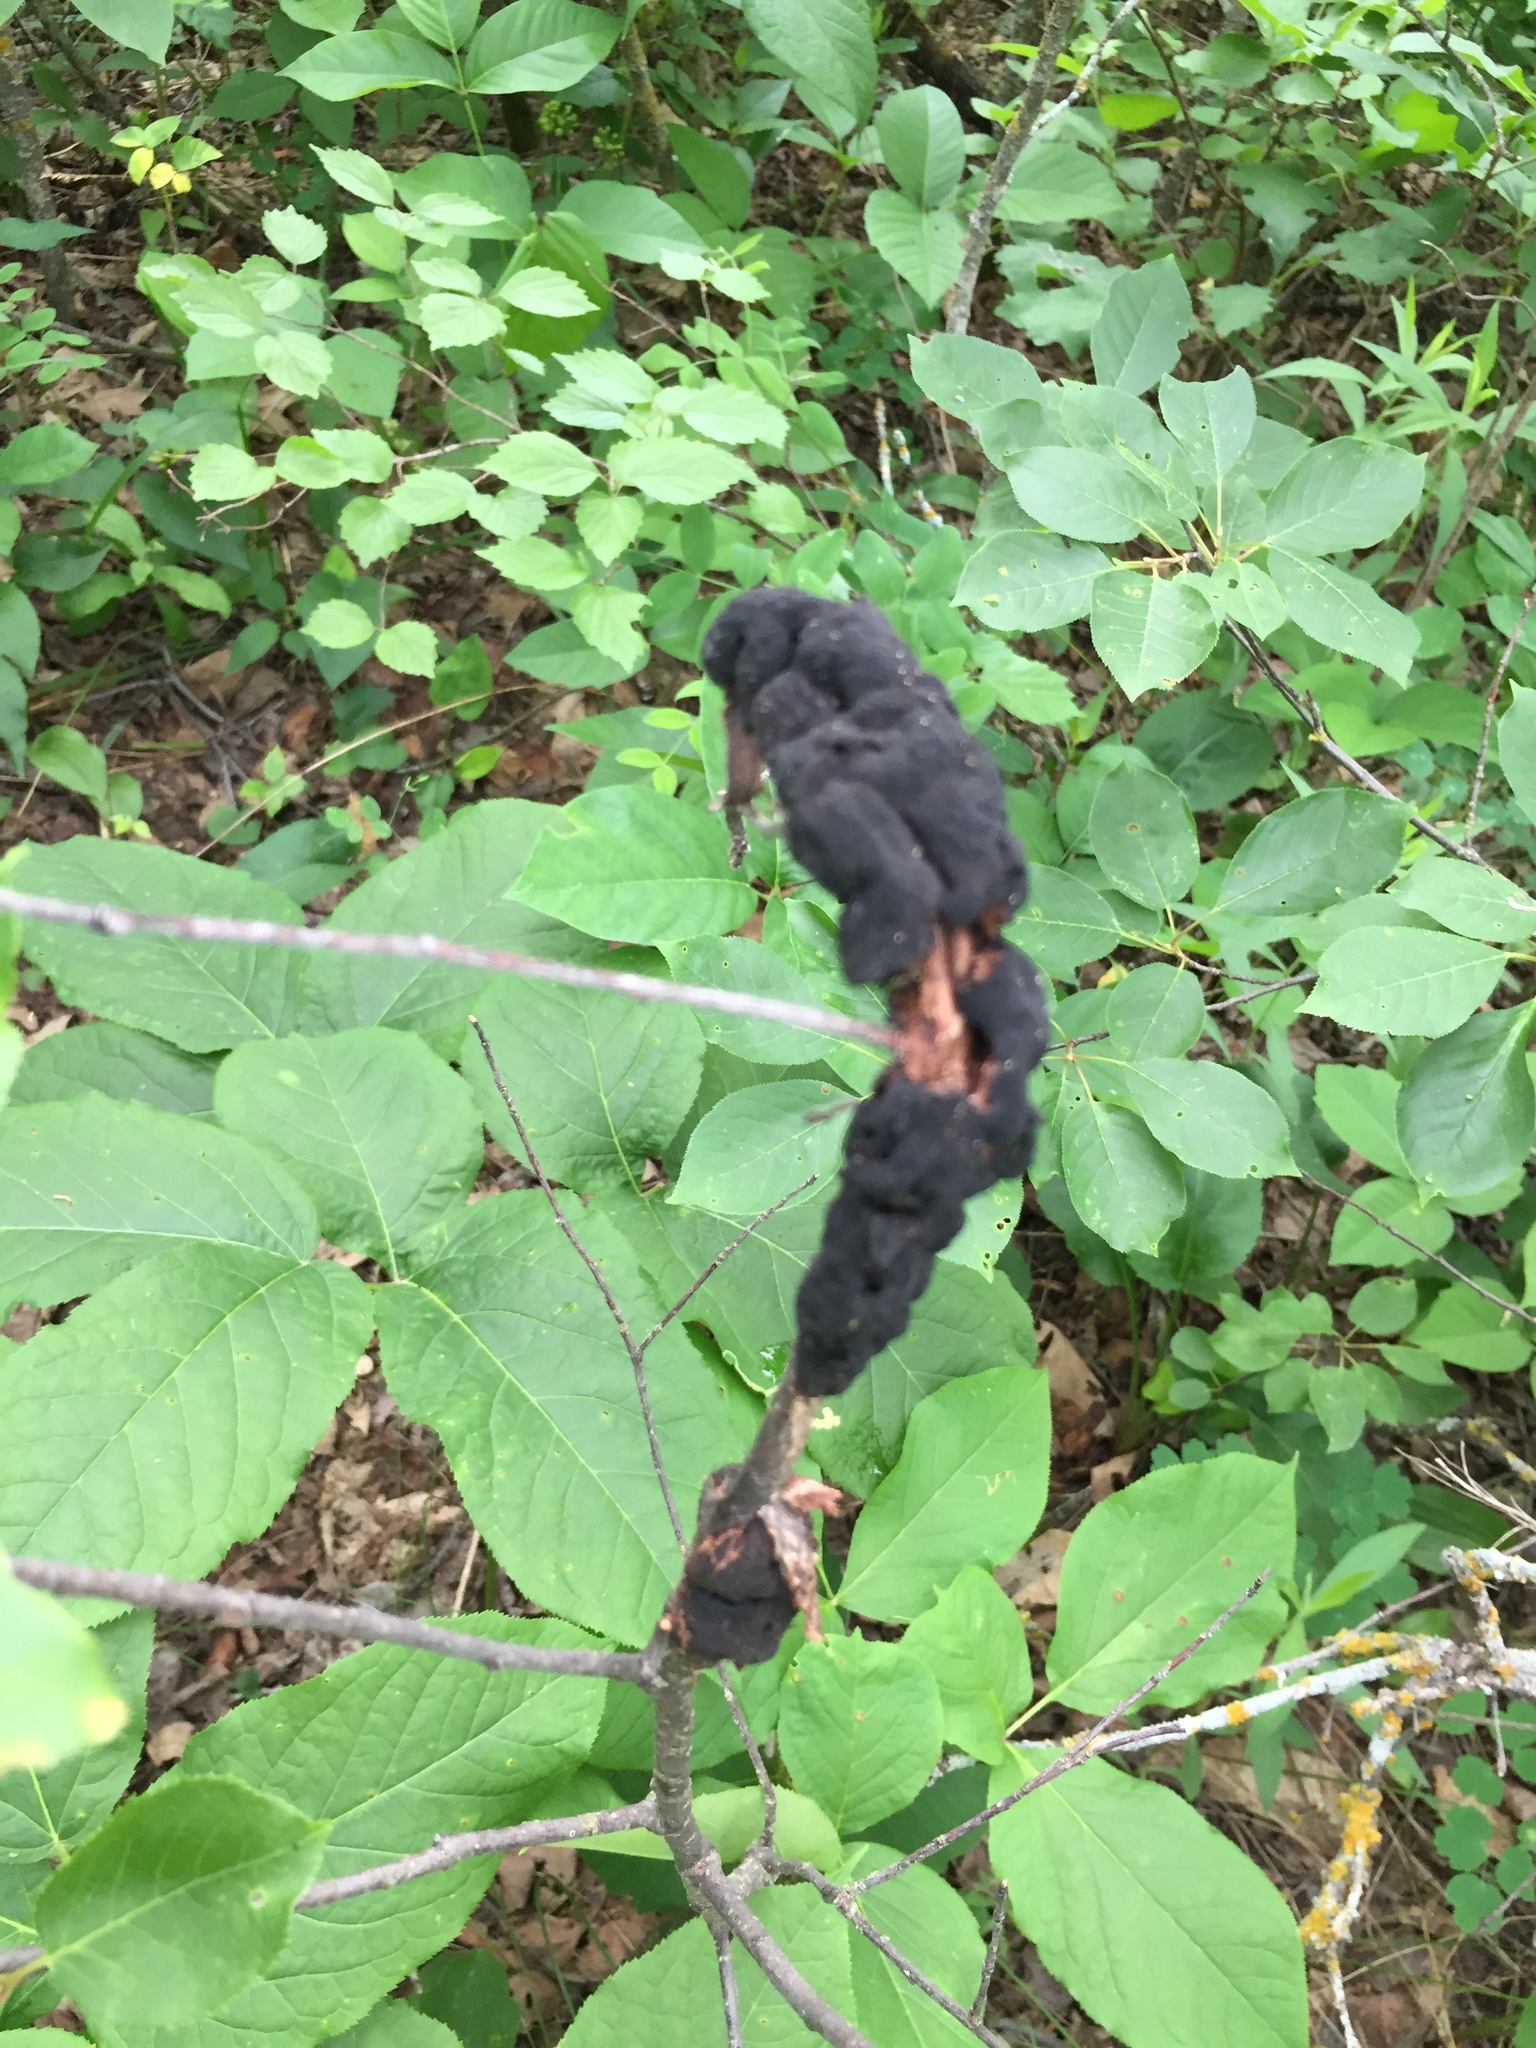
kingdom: Fungi
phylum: Ascomycota
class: Dothideomycetes
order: Venturiales
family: Venturiaceae
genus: Apiosporina
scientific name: Apiosporina morbosa
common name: Black knot
